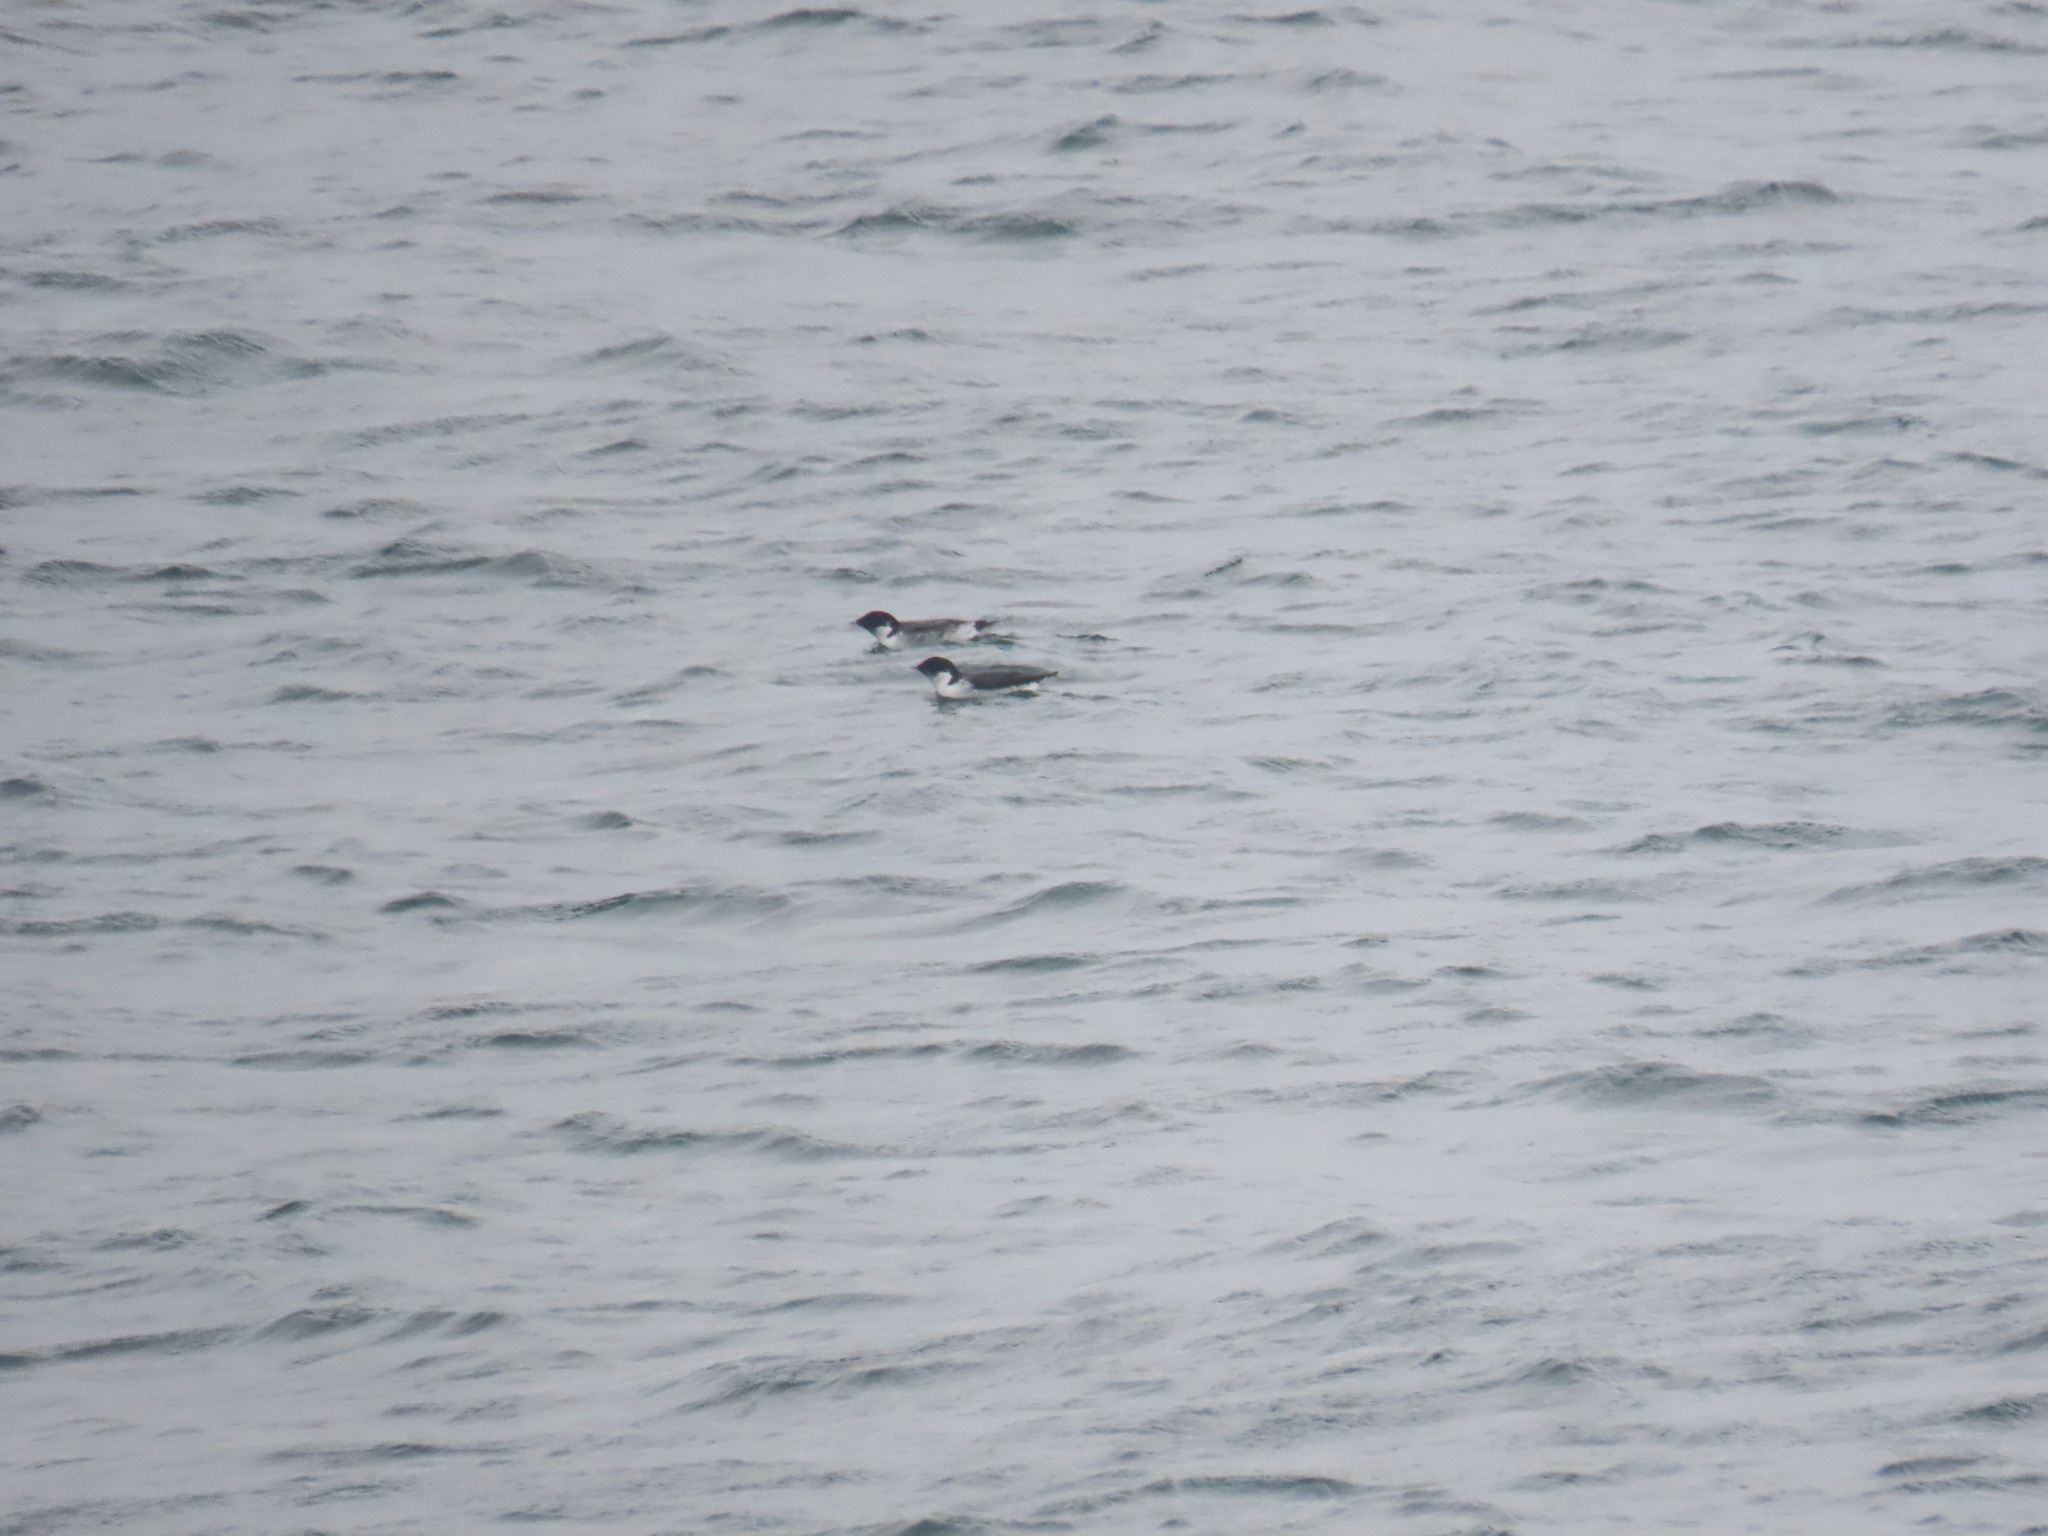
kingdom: Animalia
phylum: Chordata
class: Aves
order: Charadriiformes
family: Alcidae
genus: Synthliboramphus
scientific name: Synthliboramphus antiquus
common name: Ancient murrelet
